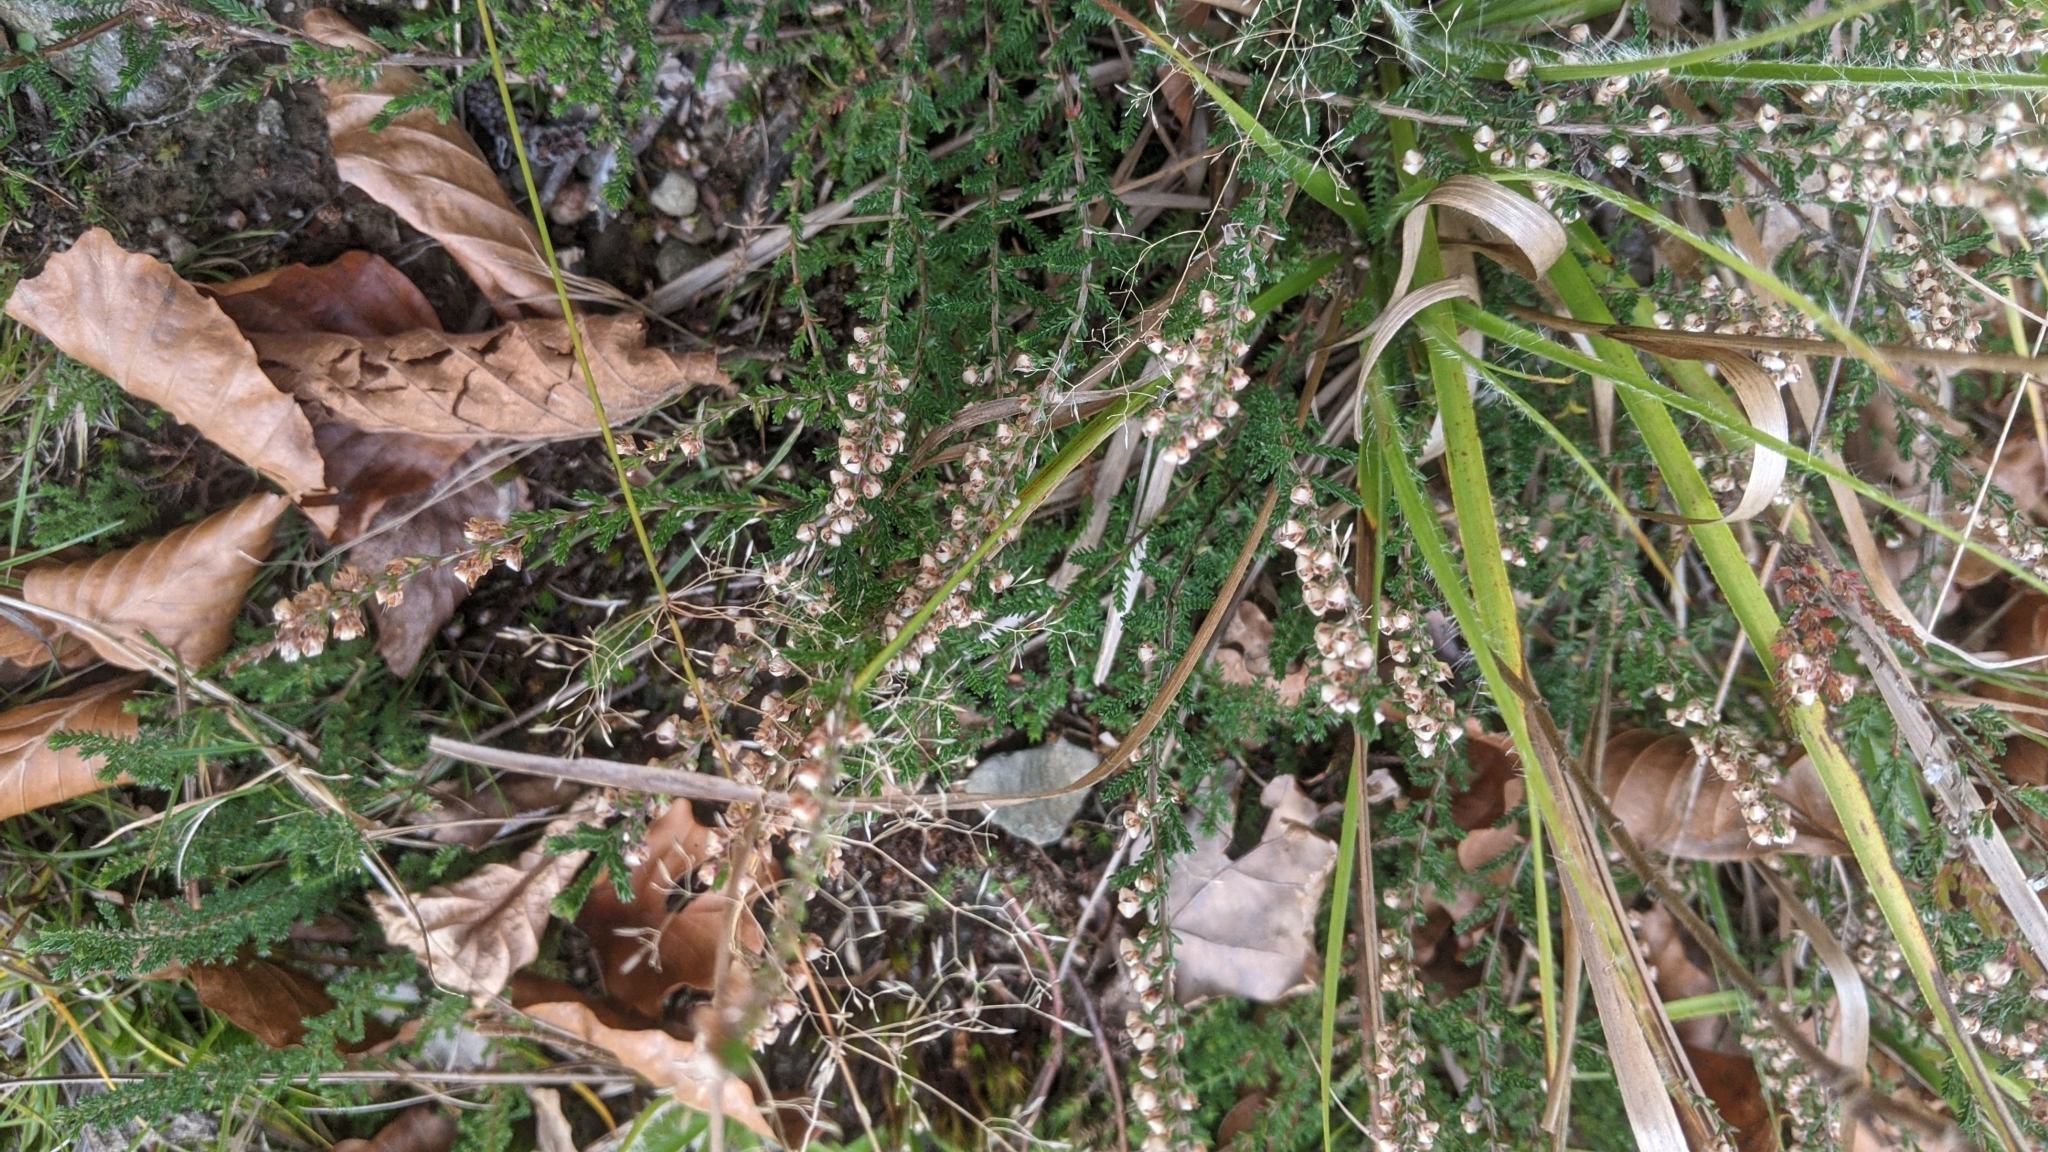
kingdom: Plantae
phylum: Tracheophyta
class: Magnoliopsida
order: Ericales
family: Ericaceae
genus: Calluna
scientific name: Calluna vulgaris
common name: Heather
